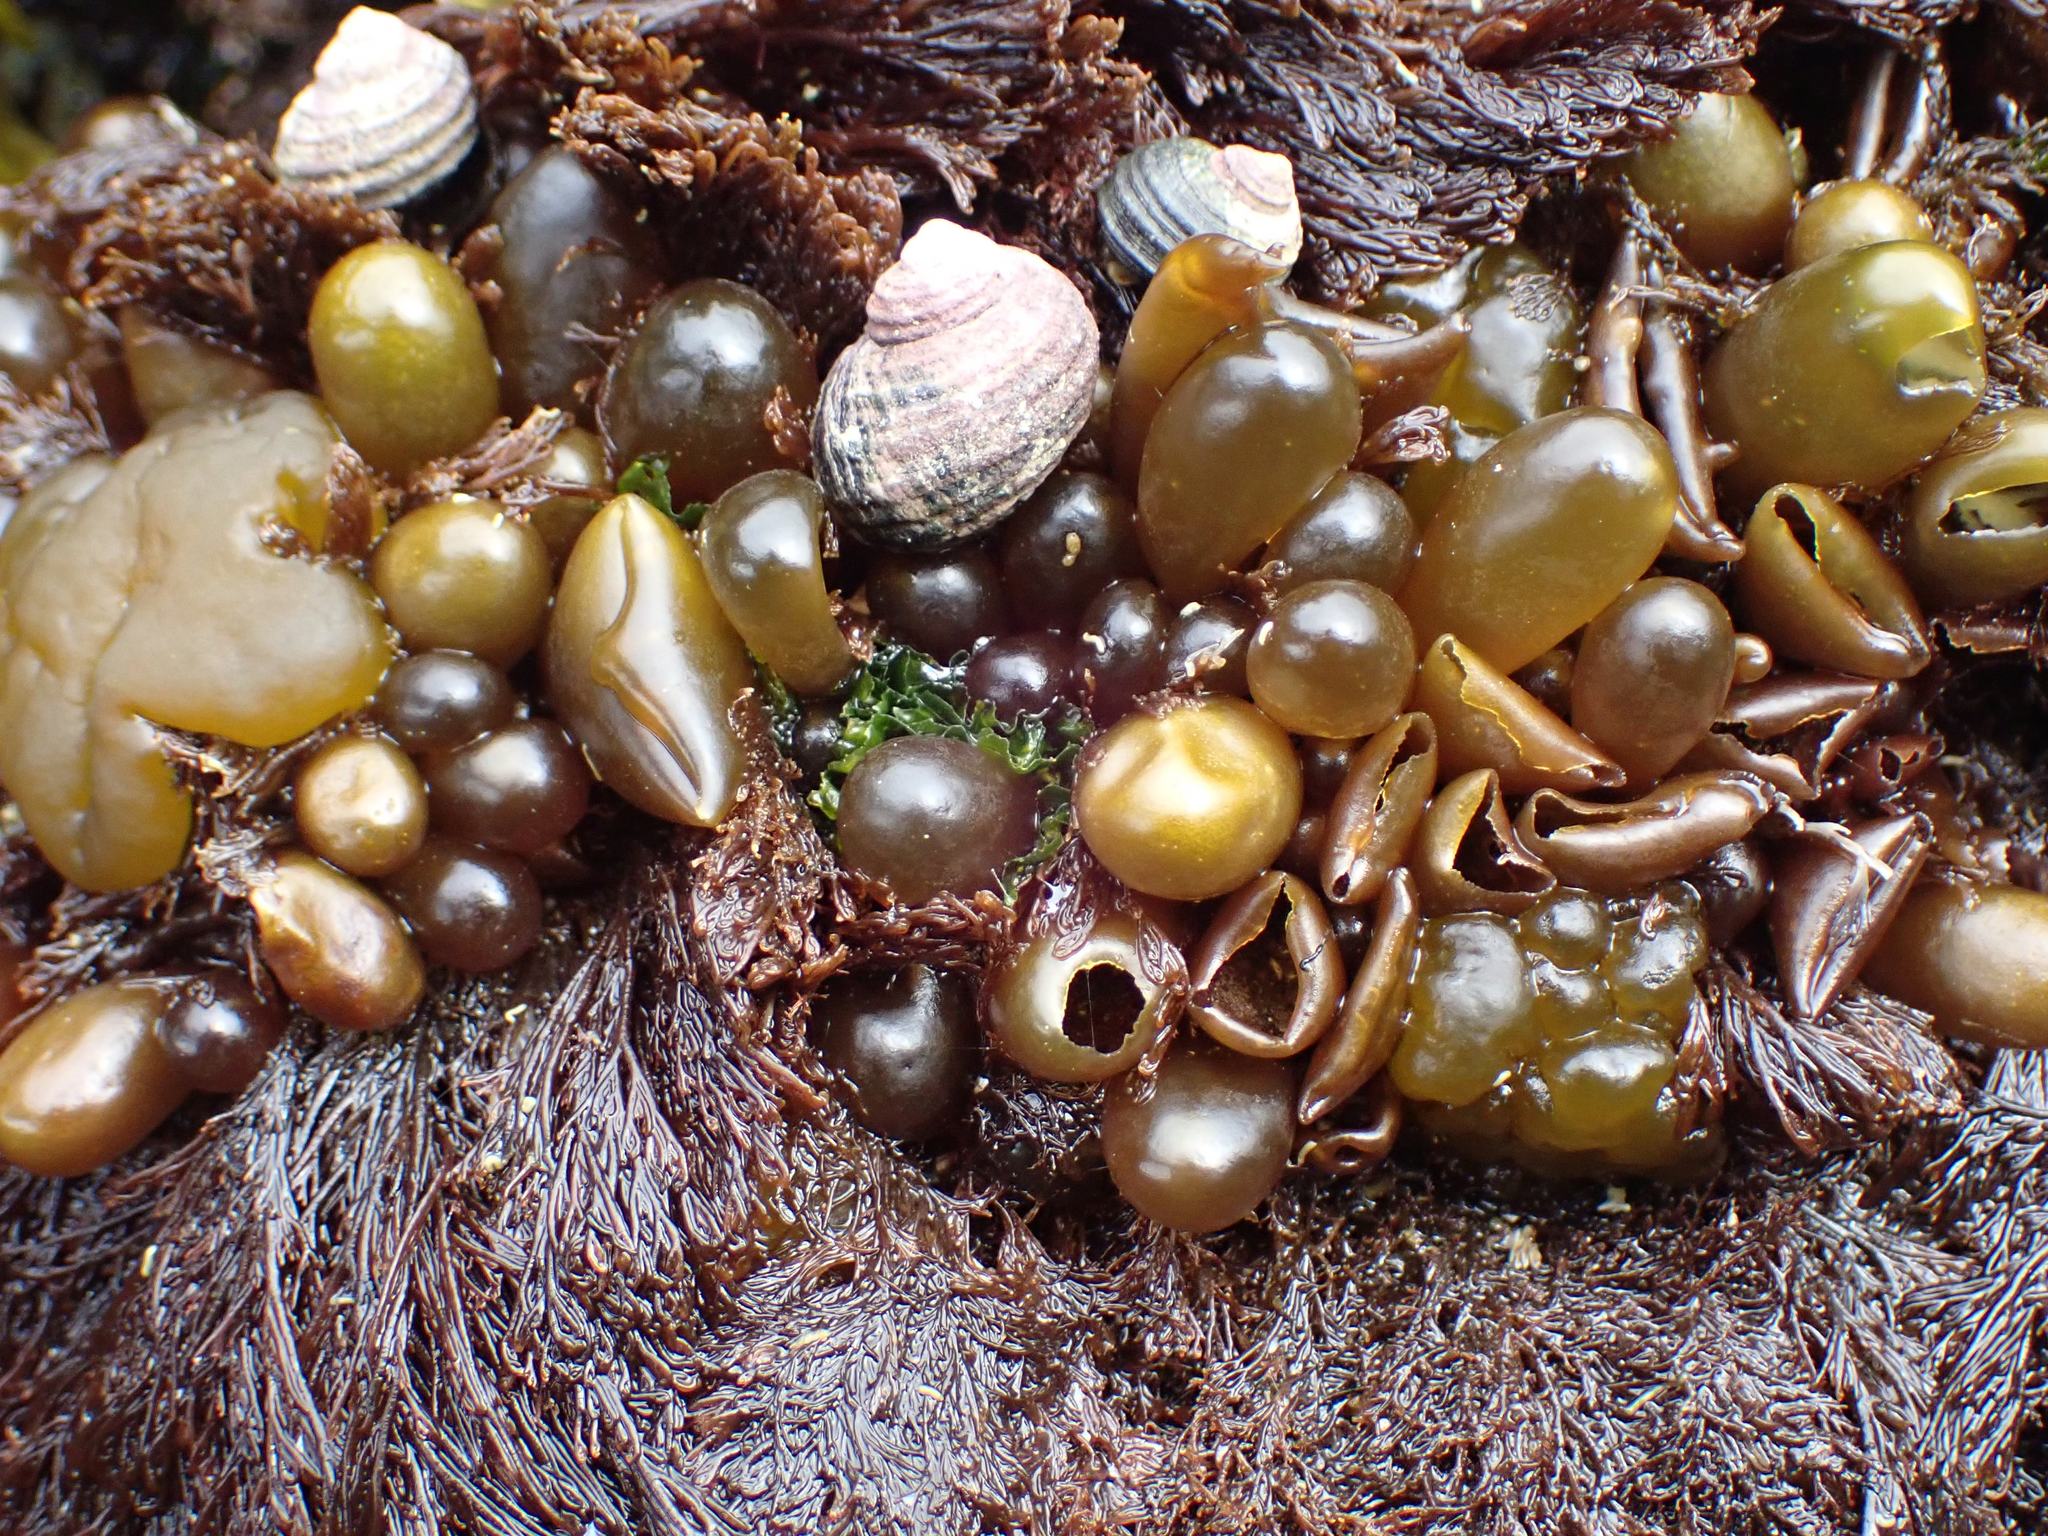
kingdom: Plantae
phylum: Rhodophyta
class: Florideophyceae
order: Palmariales
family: Palmariaceae
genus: Halosaccion
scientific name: Halosaccion glandiforme
